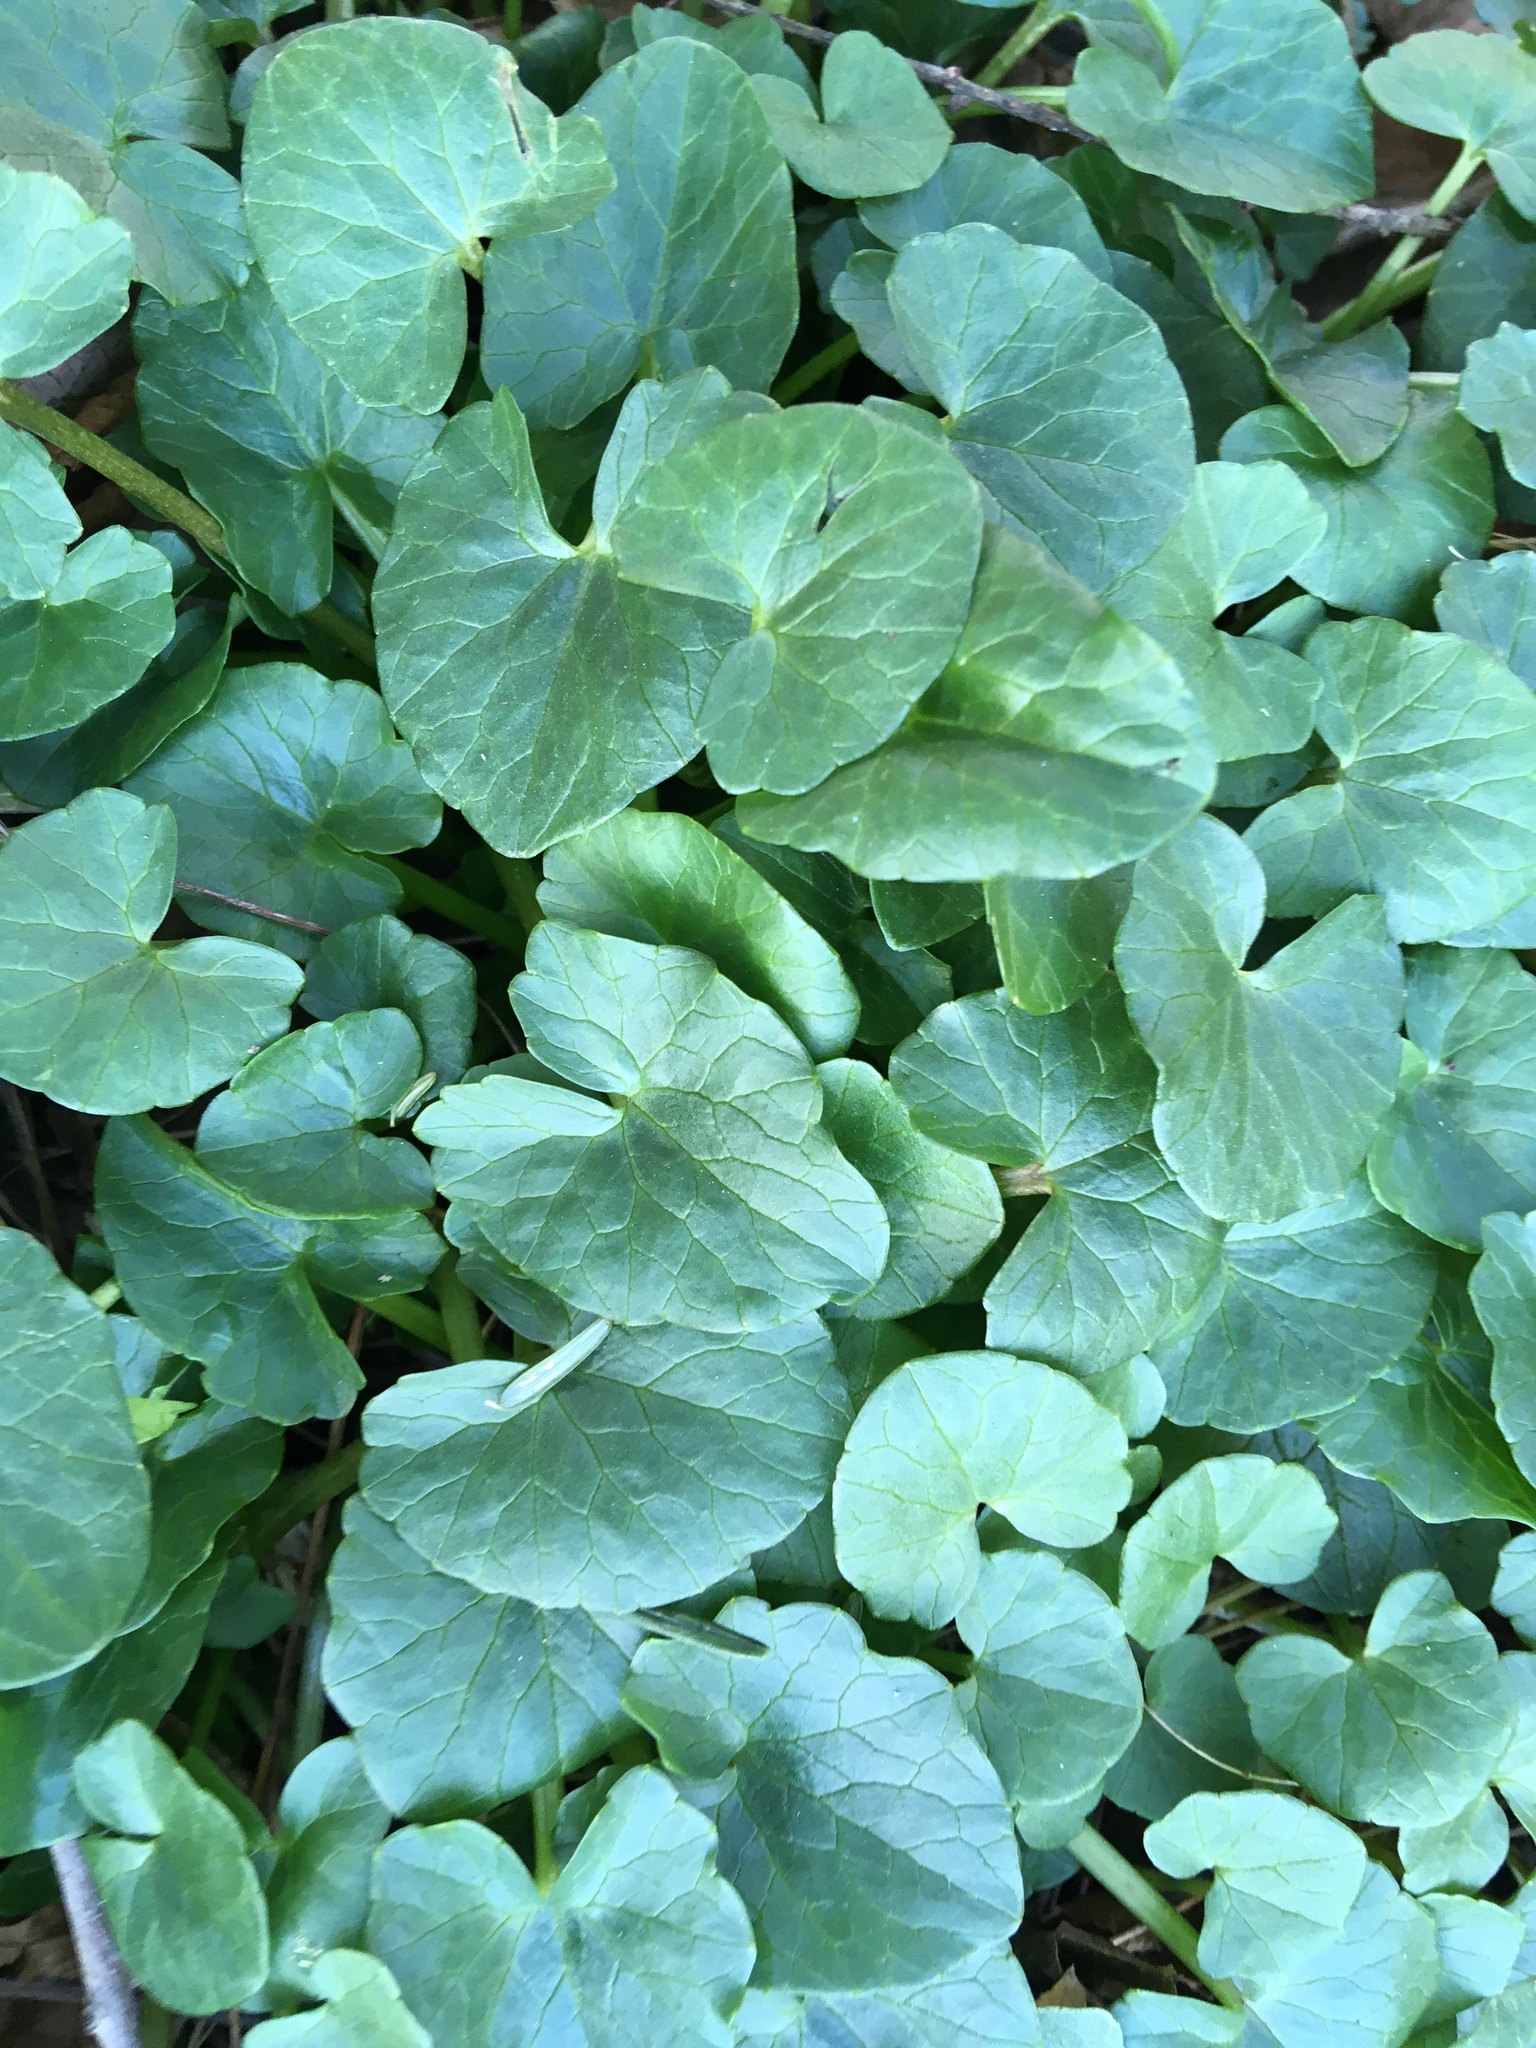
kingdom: Plantae
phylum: Tracheophyta
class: Magnoliopsida
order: Ranunculales
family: Ranunculaceae
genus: Ficaria
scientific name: Ficaria verna
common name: Lesser celandine
